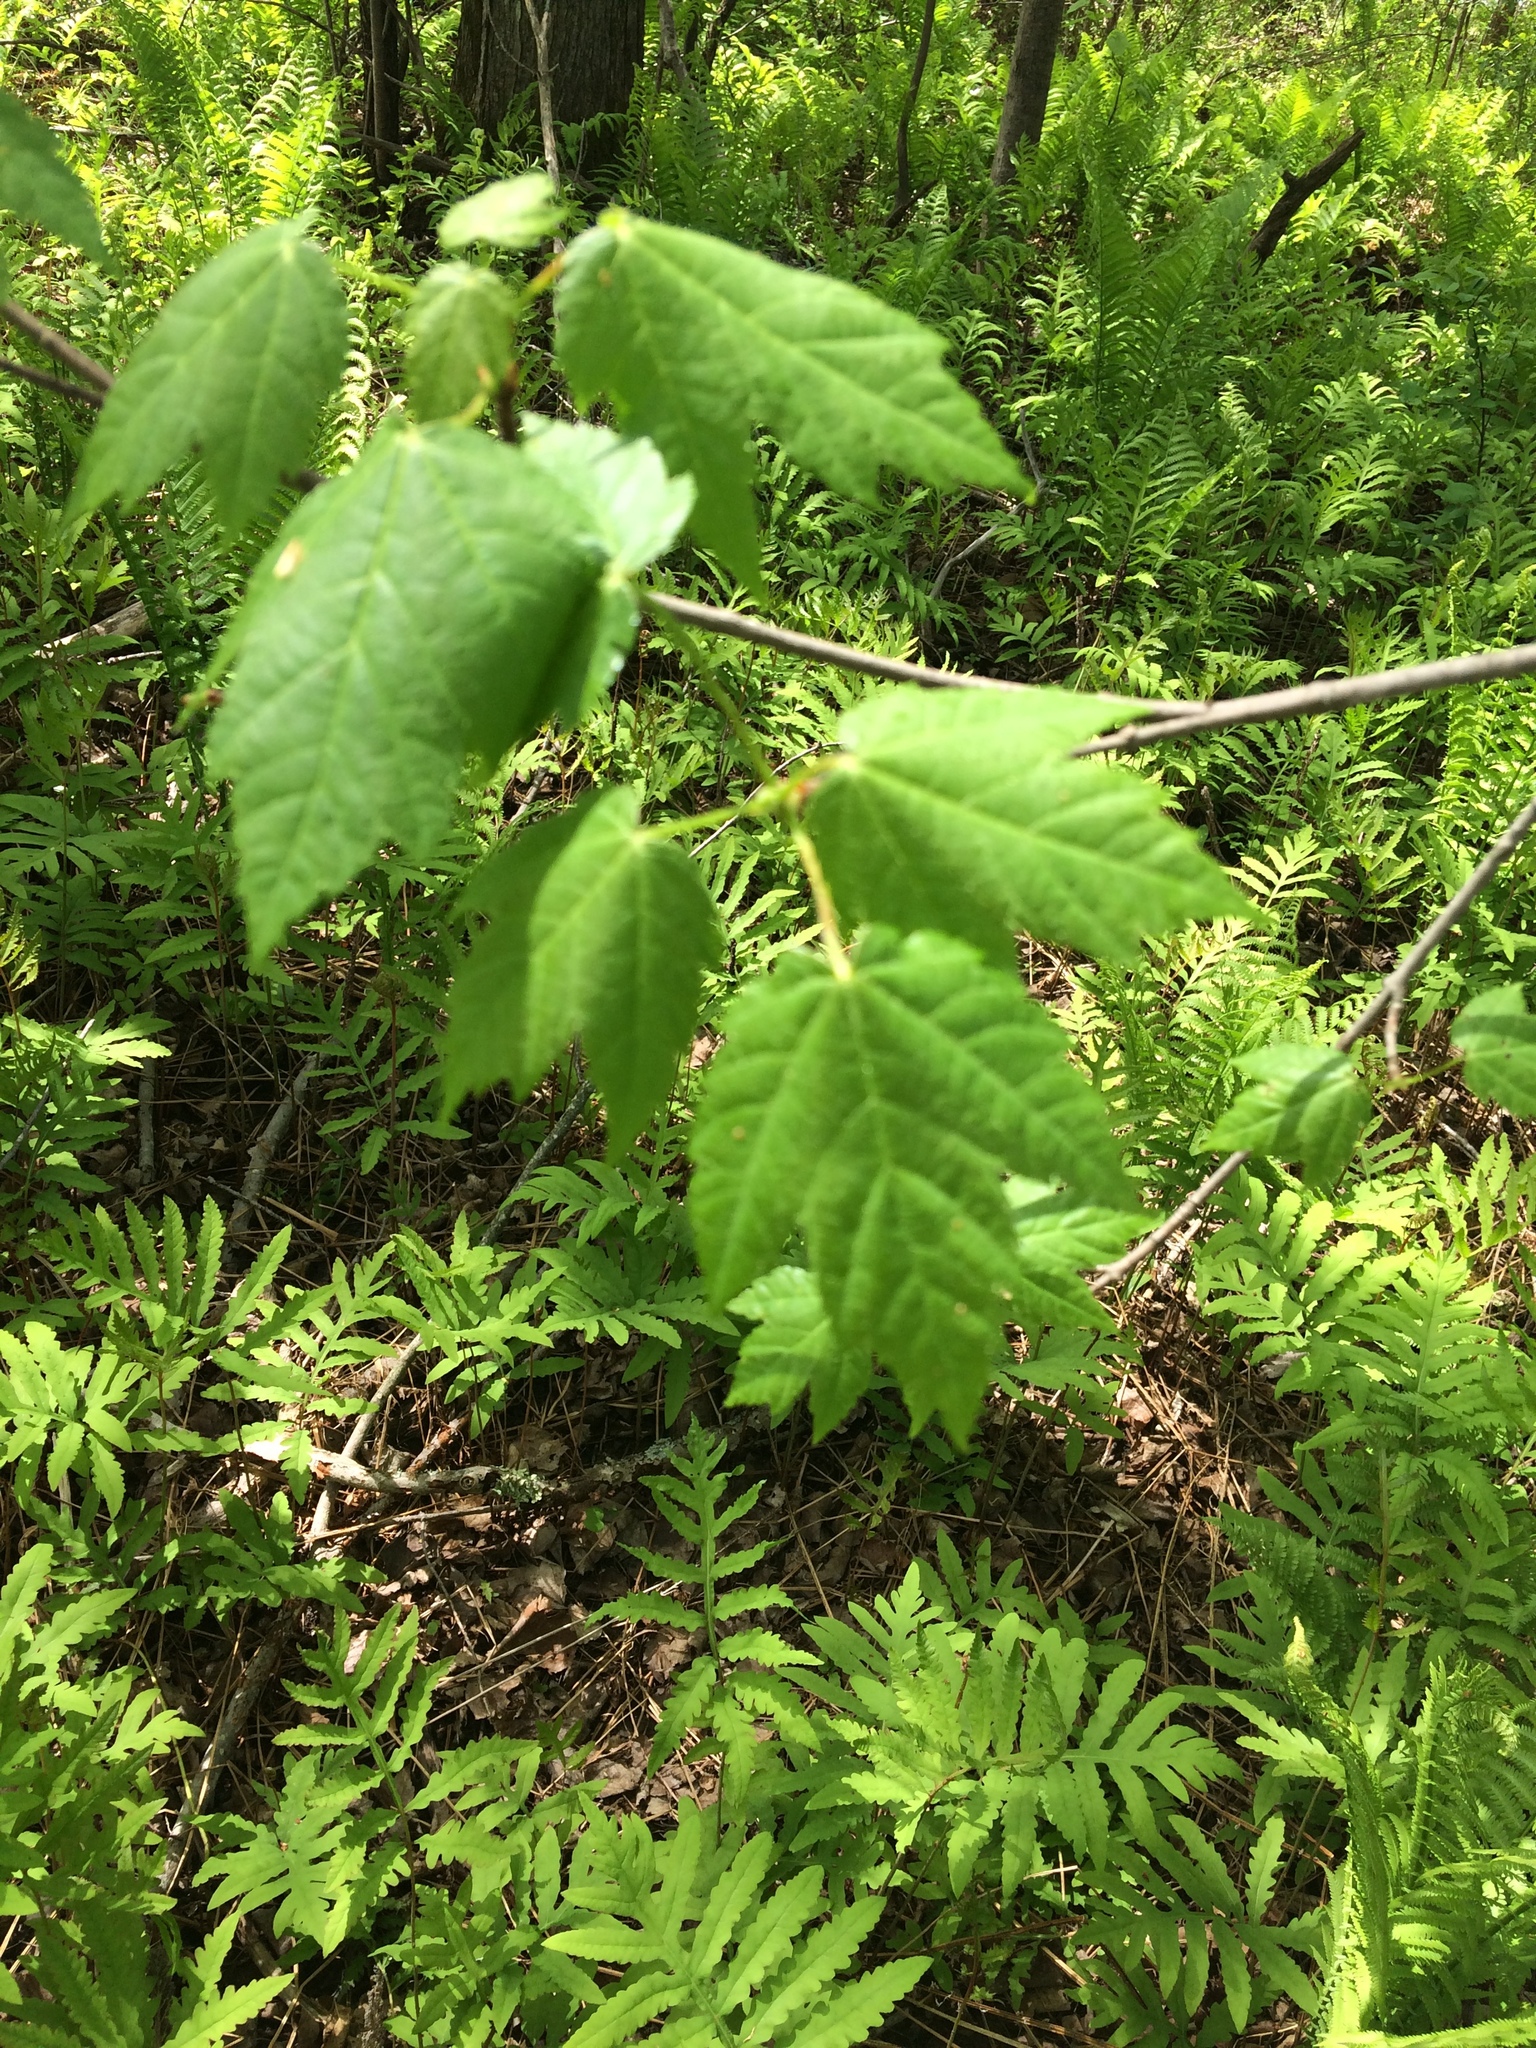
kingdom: Plantae
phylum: Tracheophyta
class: Magnoliopsida
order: Sapindales
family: Sapindaceae
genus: Acer
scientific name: Acer rubrum
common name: Red maple
